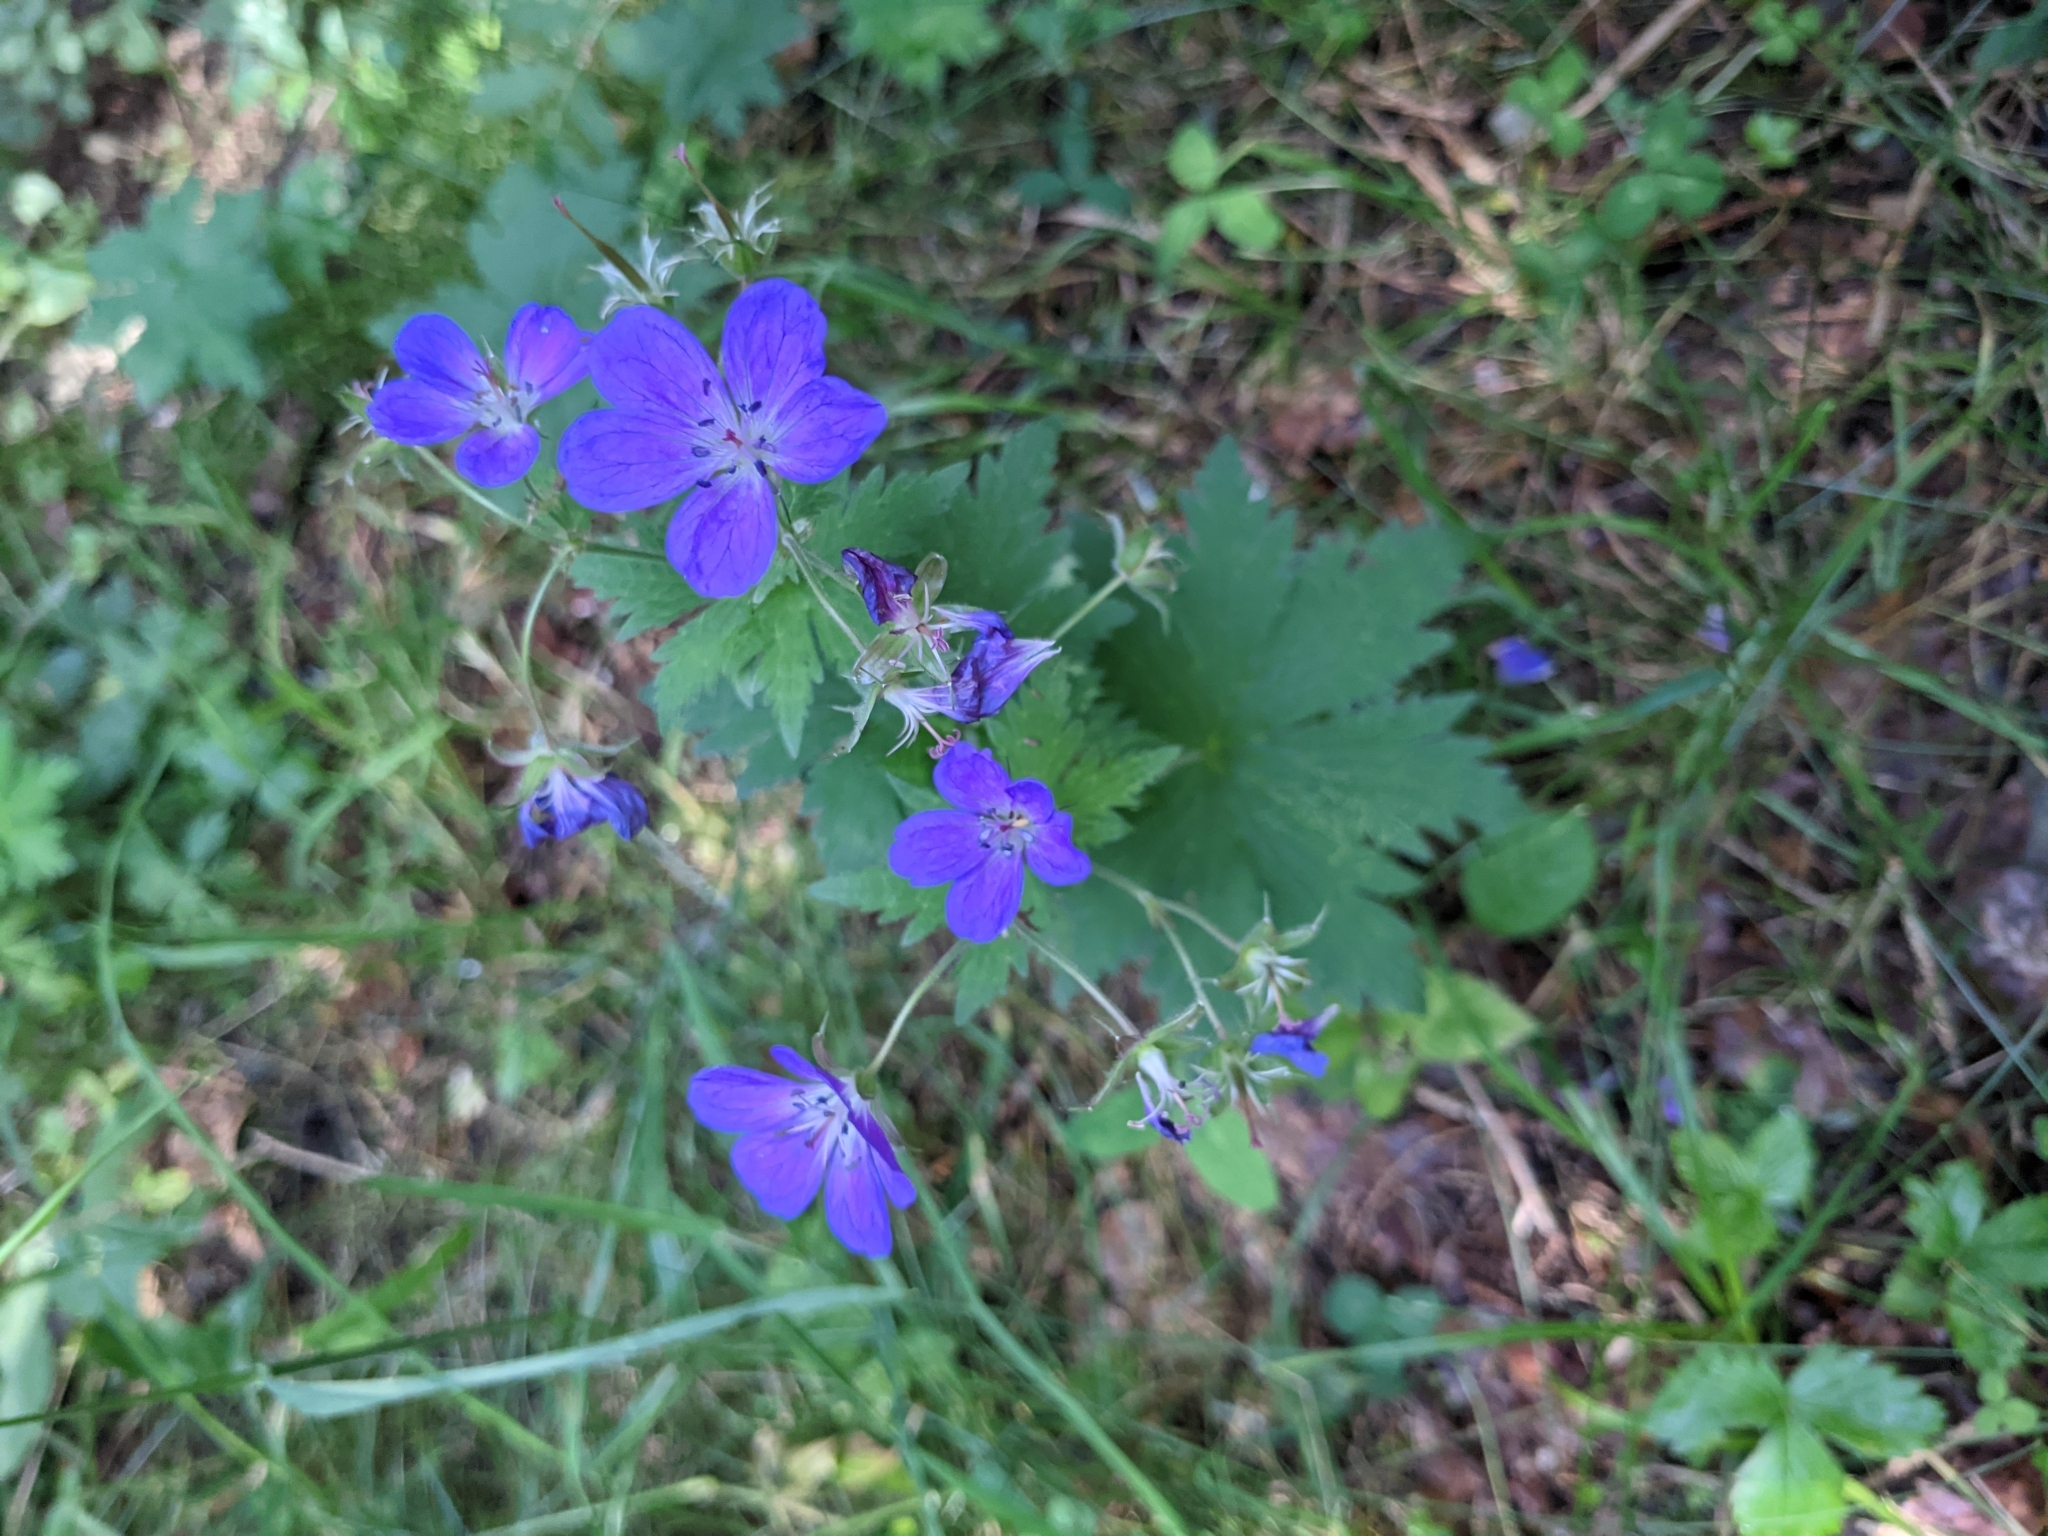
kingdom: Plantae
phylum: Tracheophyta
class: Magnoliopsida
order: Geraniales
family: Geraniaceae
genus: Geranium
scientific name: Geranium sylvaticum
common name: Wood crane's-bill
